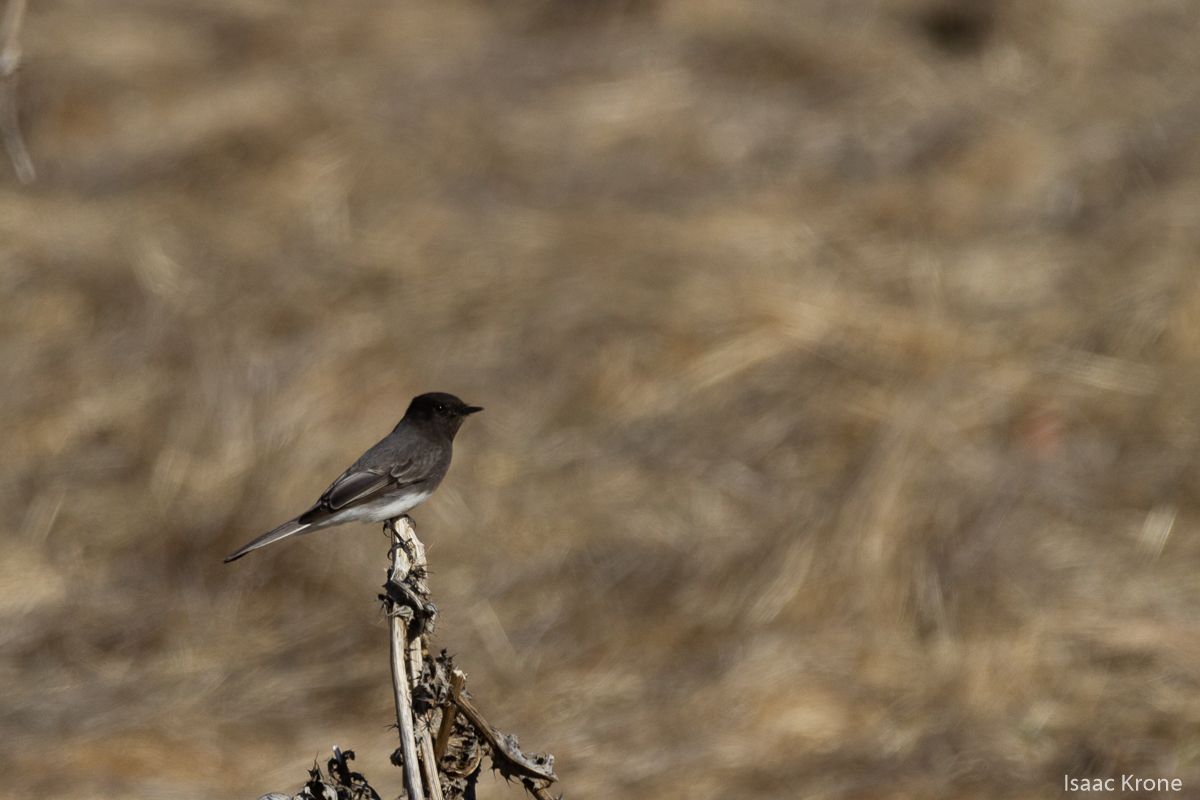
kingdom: Animalia
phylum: Chordata
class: Aves
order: Passeriformes
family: Tyrannidae
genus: Sayornis
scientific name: Sayornis nigricans
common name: Black phoebe
